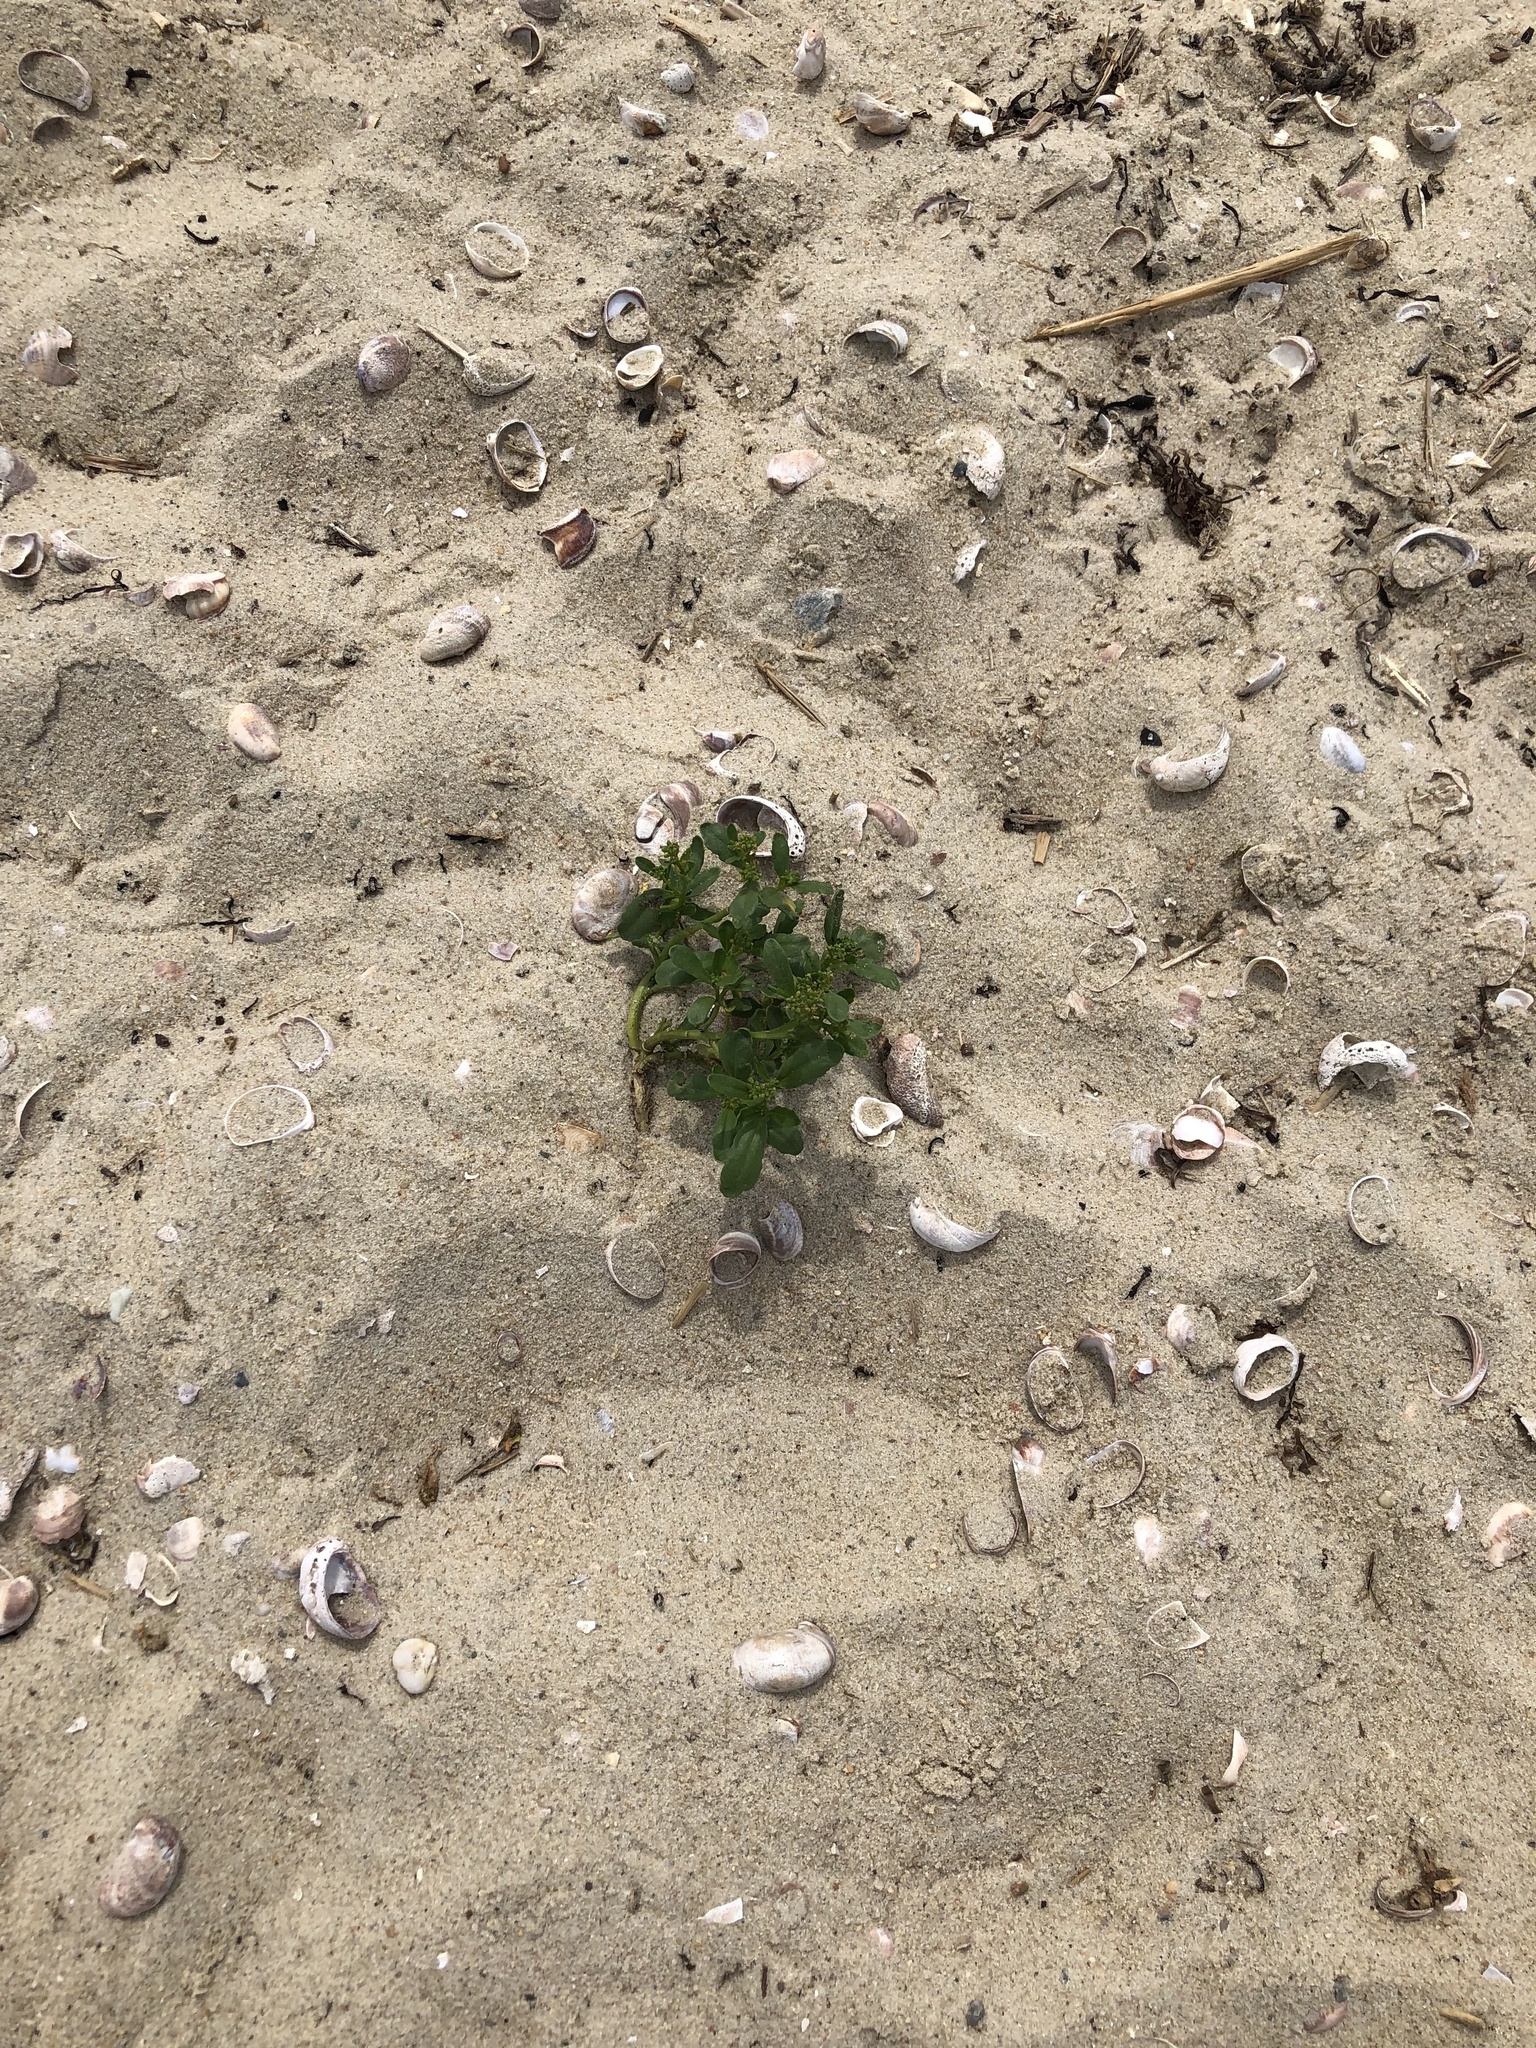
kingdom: Plantae
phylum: Tracheophyta
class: Magnoliopsida
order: Brassicales
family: Brassicaceae
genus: Cakile
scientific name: Cakile edentula
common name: American sea rocket
